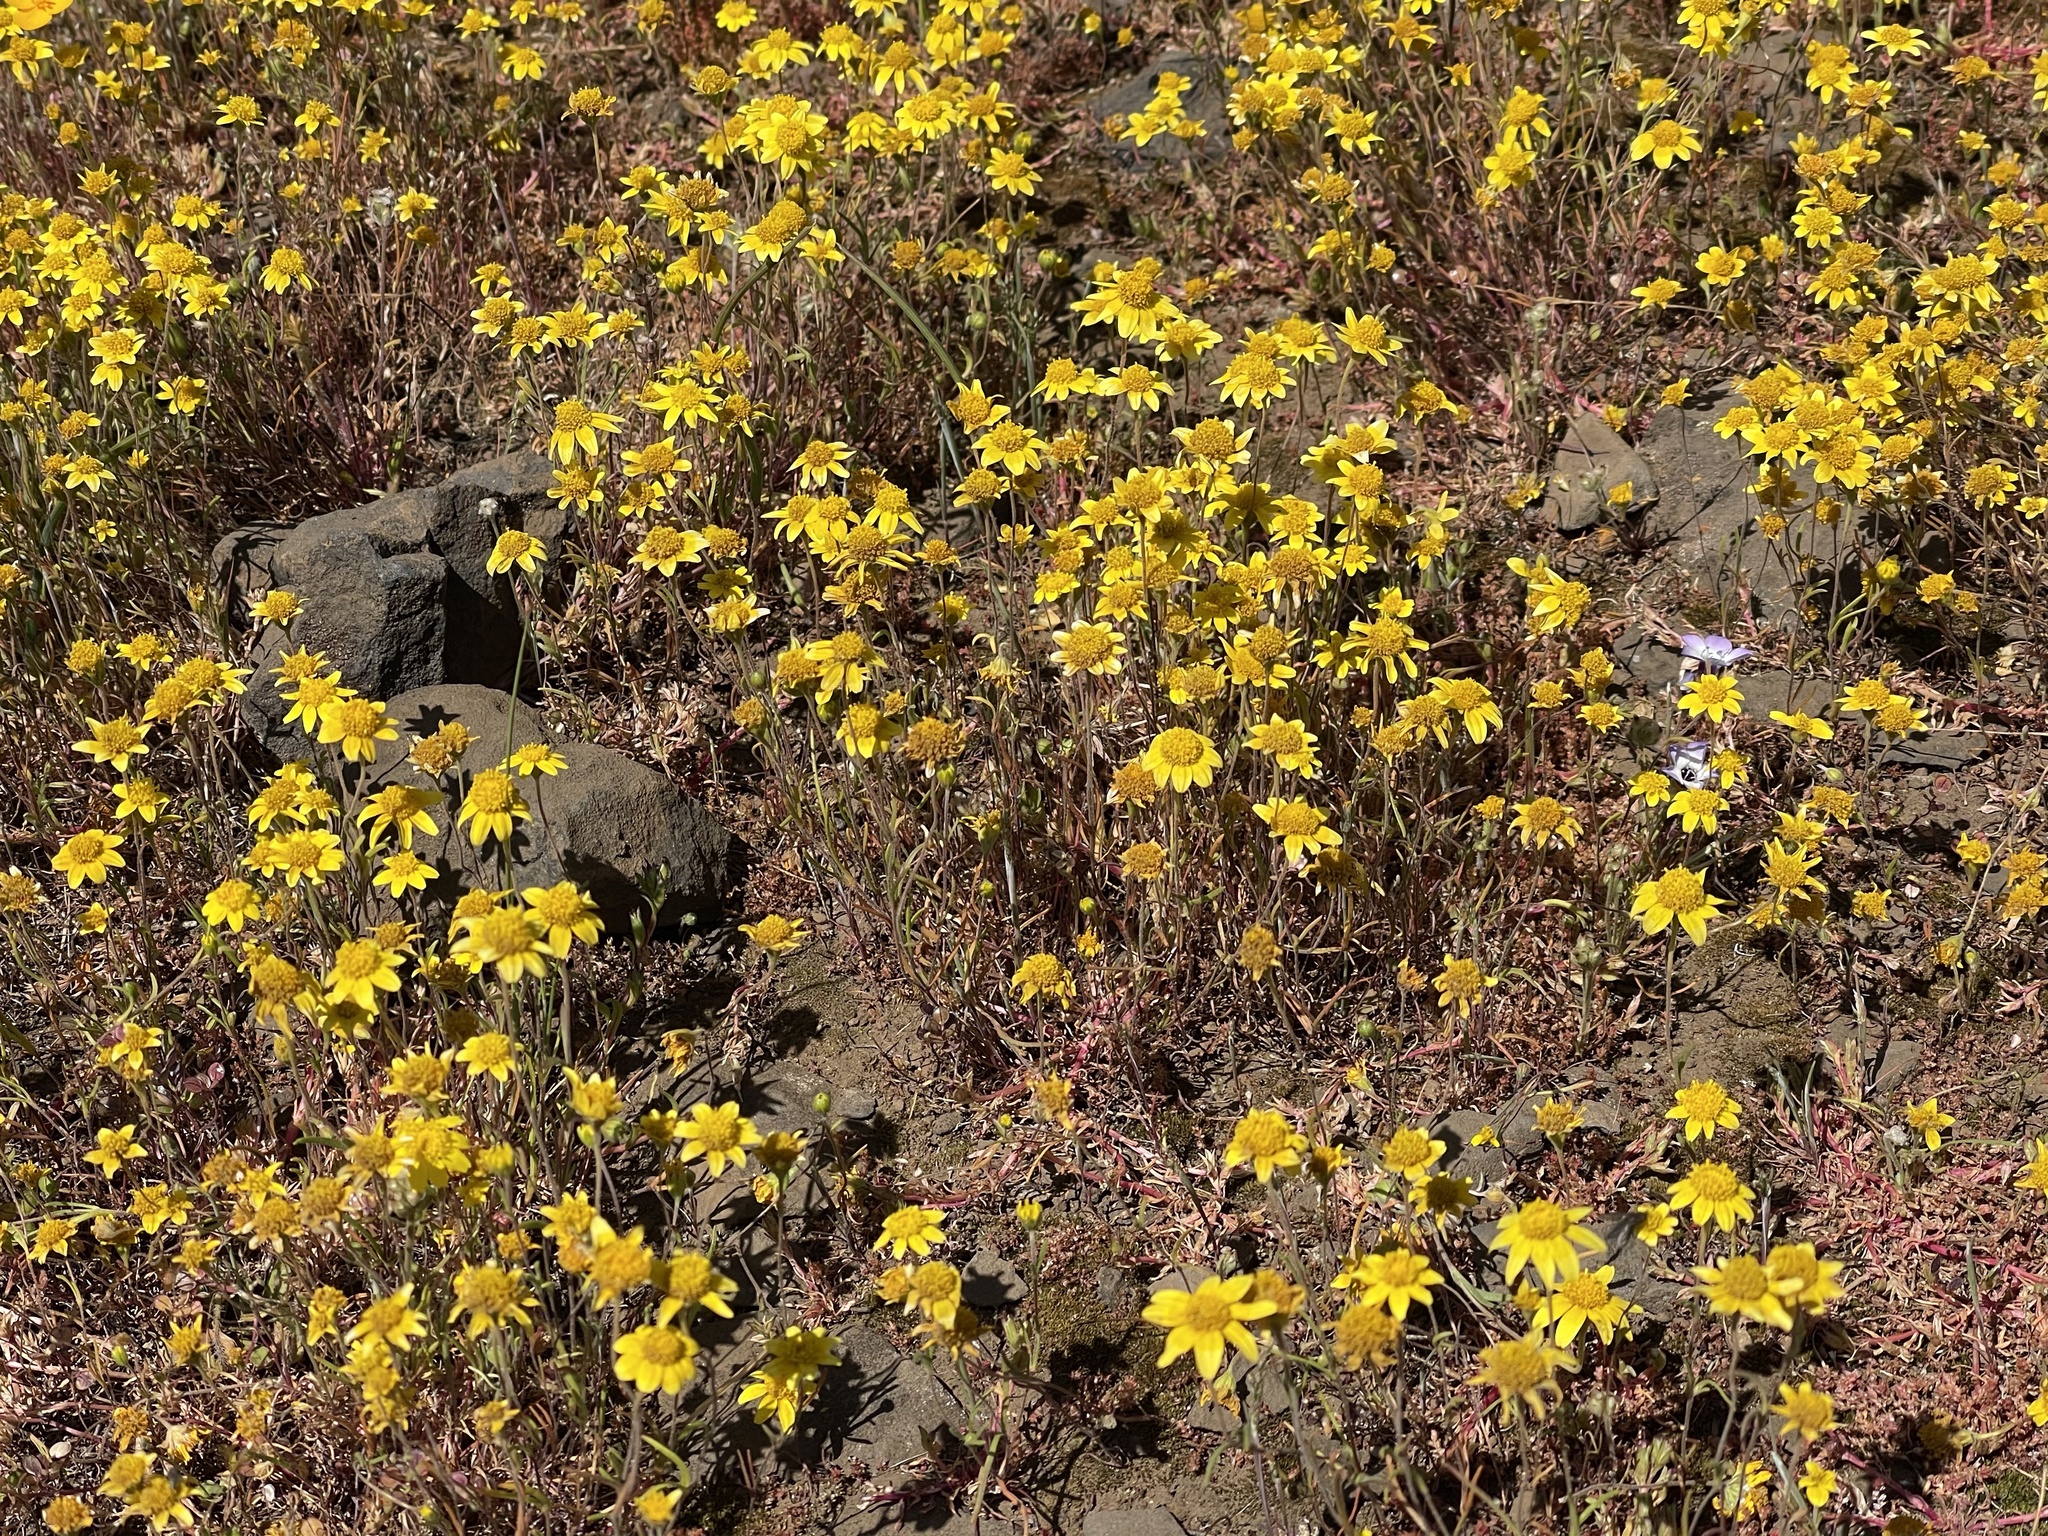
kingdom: Plantae
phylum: Tracheophyta
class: Magnoliopsida
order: Asterales
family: Asteraceae
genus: Lasthenia
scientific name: Lasthenia californica
